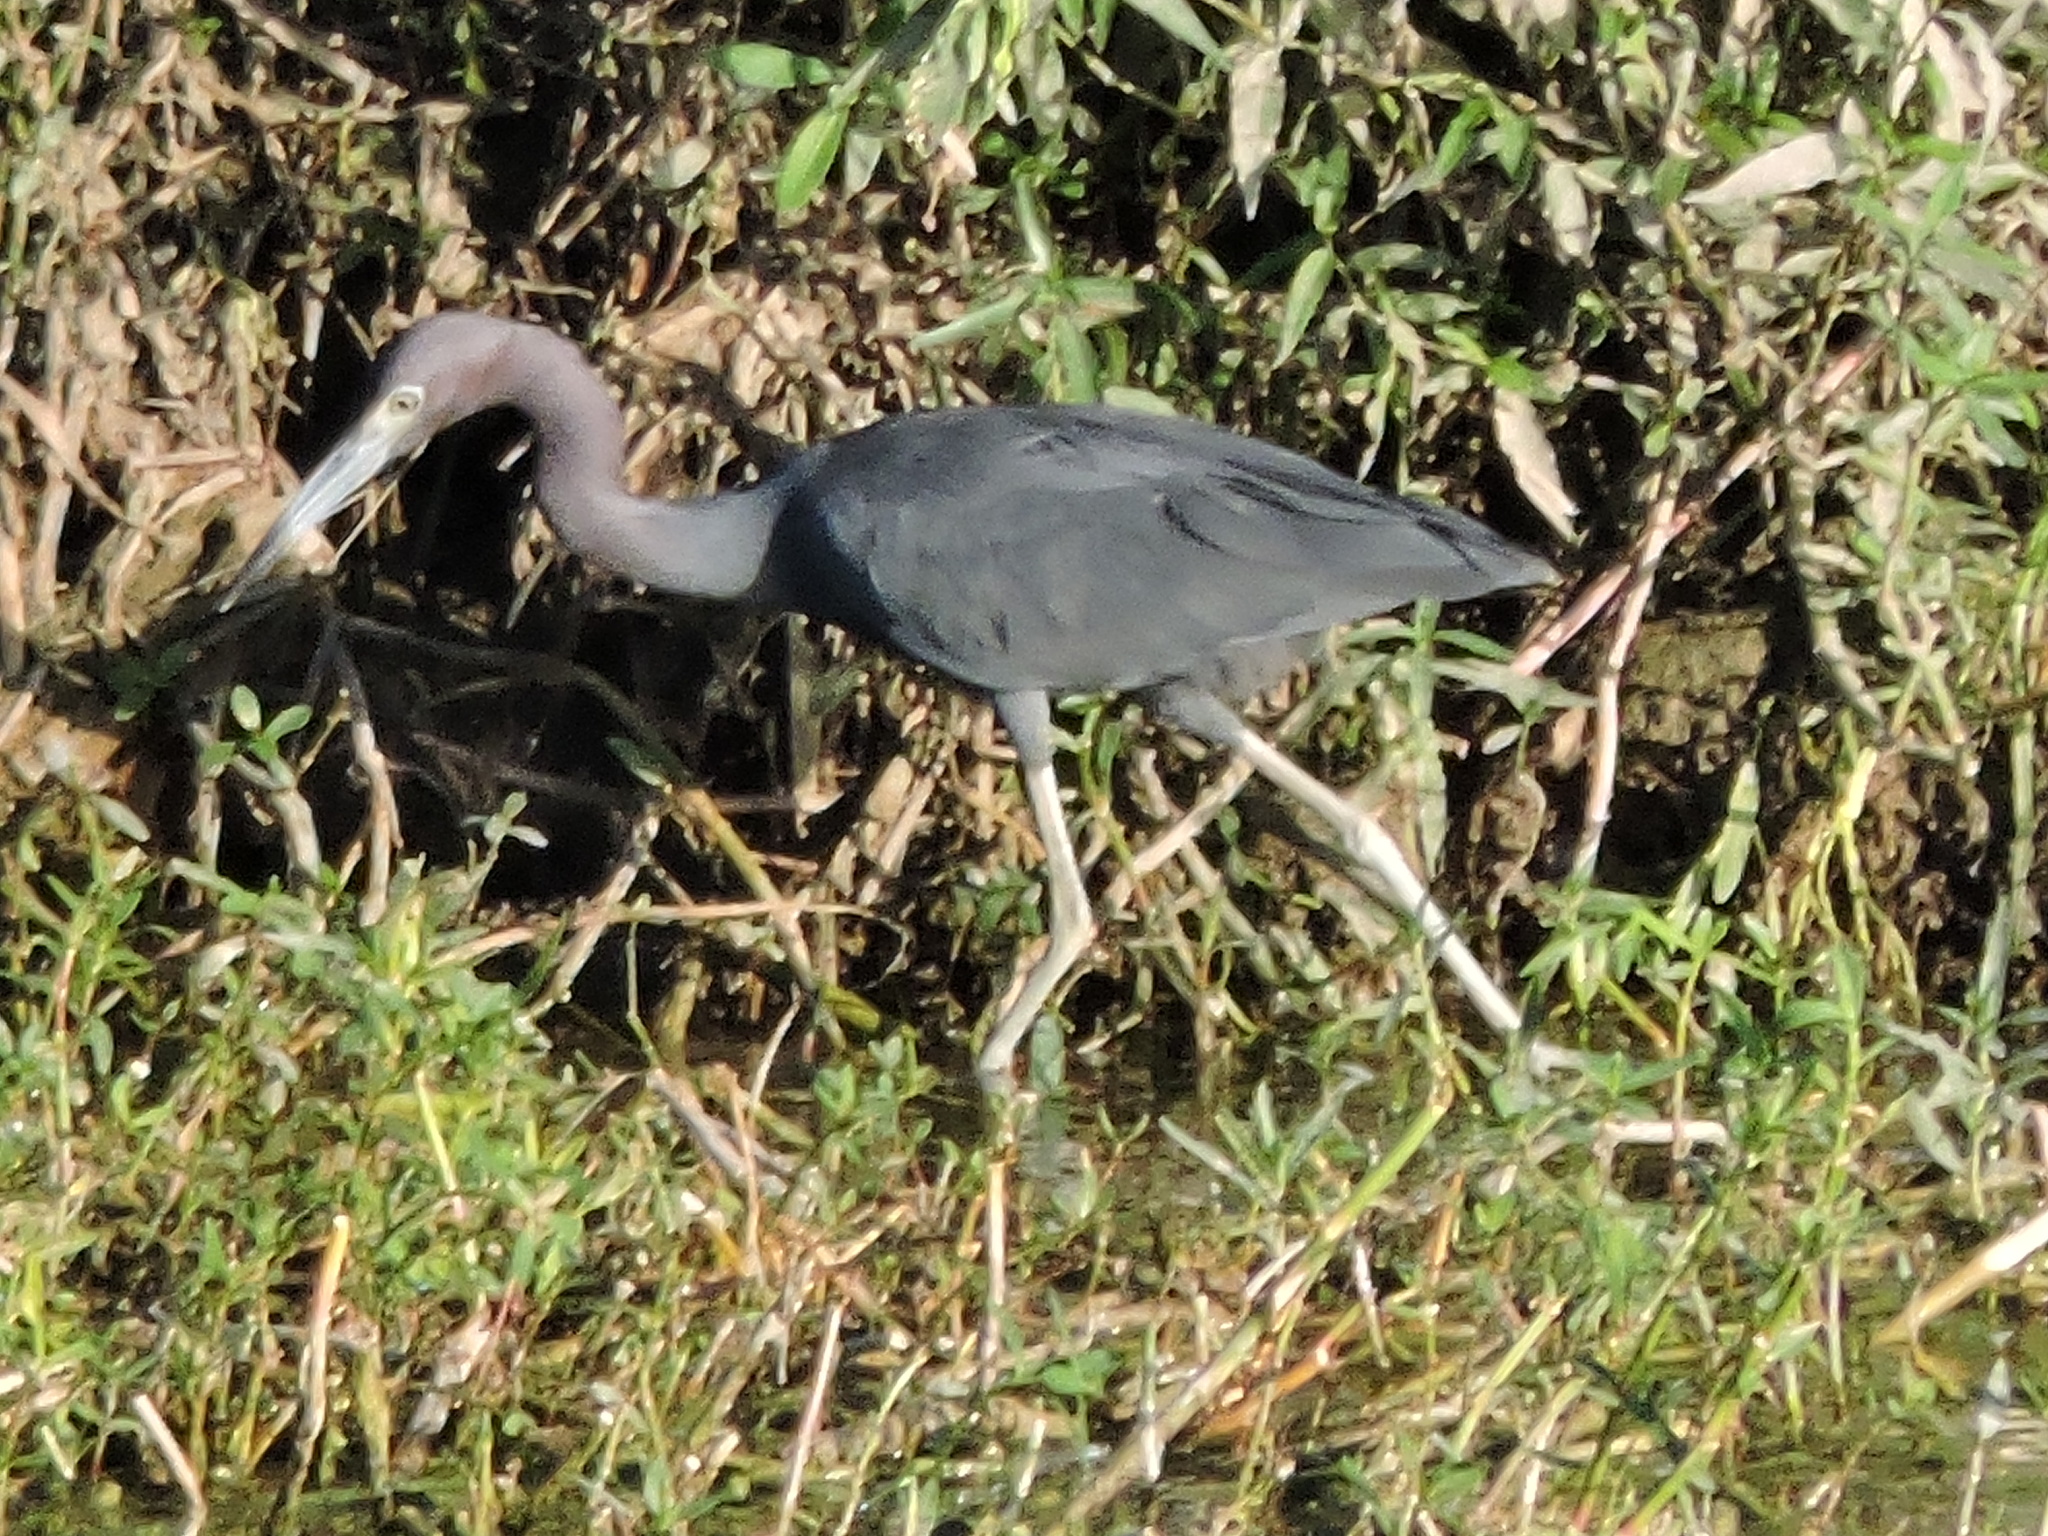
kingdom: Animalia
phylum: Chordata
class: Aves
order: Pelecaniformes
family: Ardeidae
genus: Egretta
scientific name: Egretta caerulea
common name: Little blue heron
